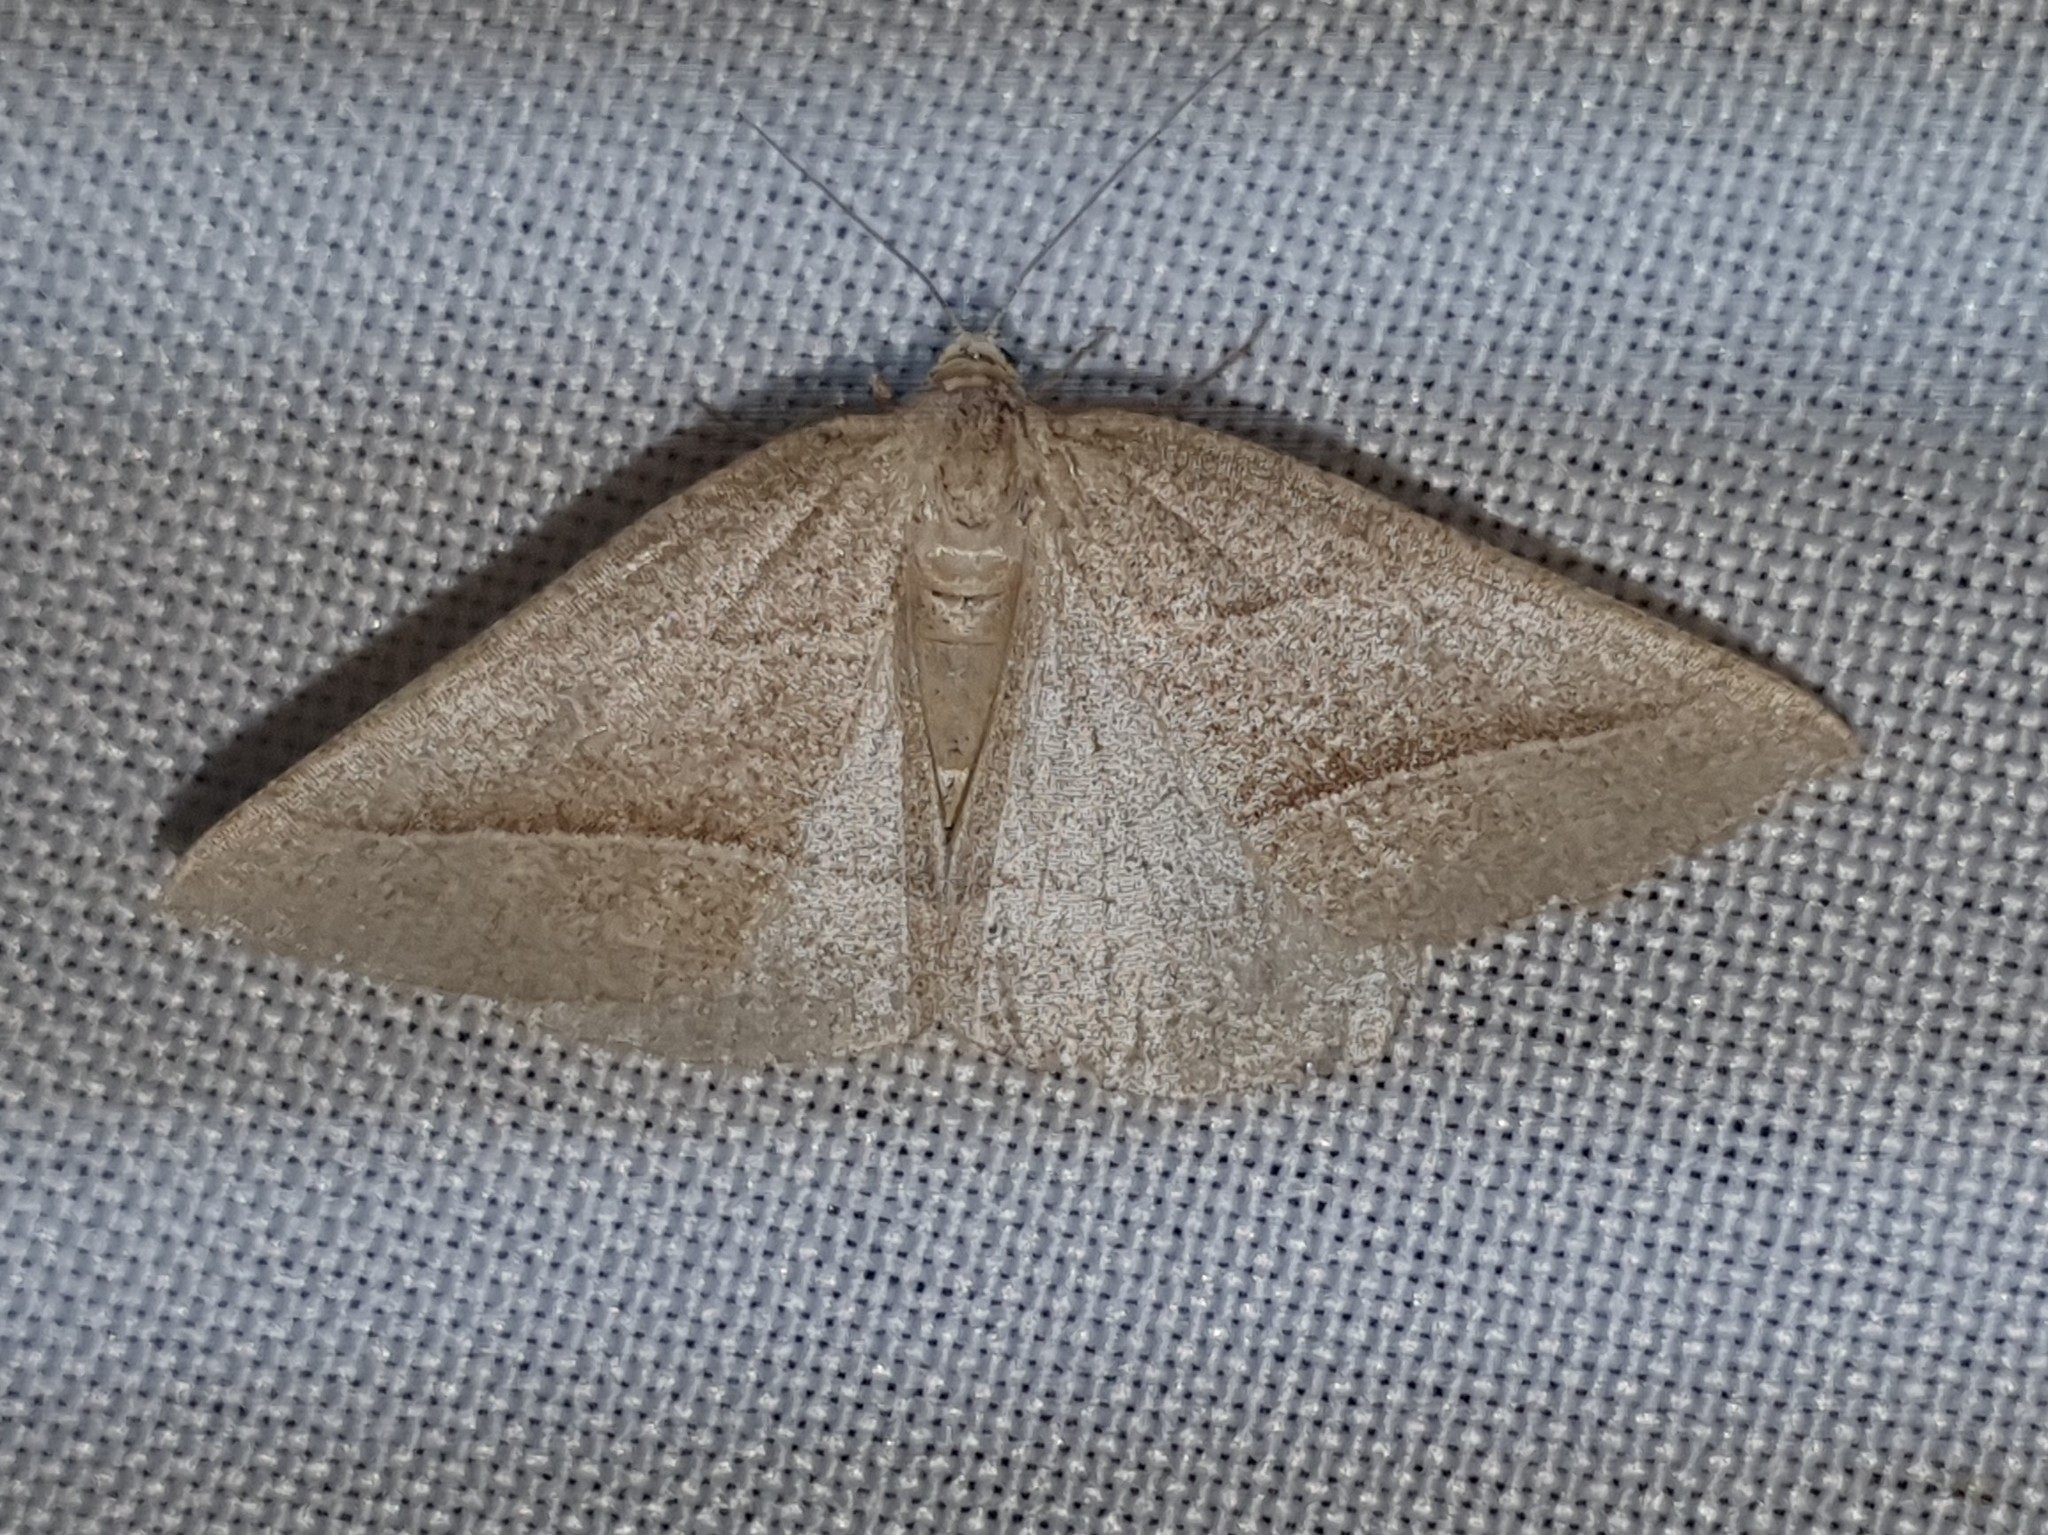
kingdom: Animalia
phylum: Arthropoda
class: Insecta
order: Lepidoptera
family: Pterophoridae
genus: Pterophorus
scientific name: Pterophorus Petrophora chlorosata
